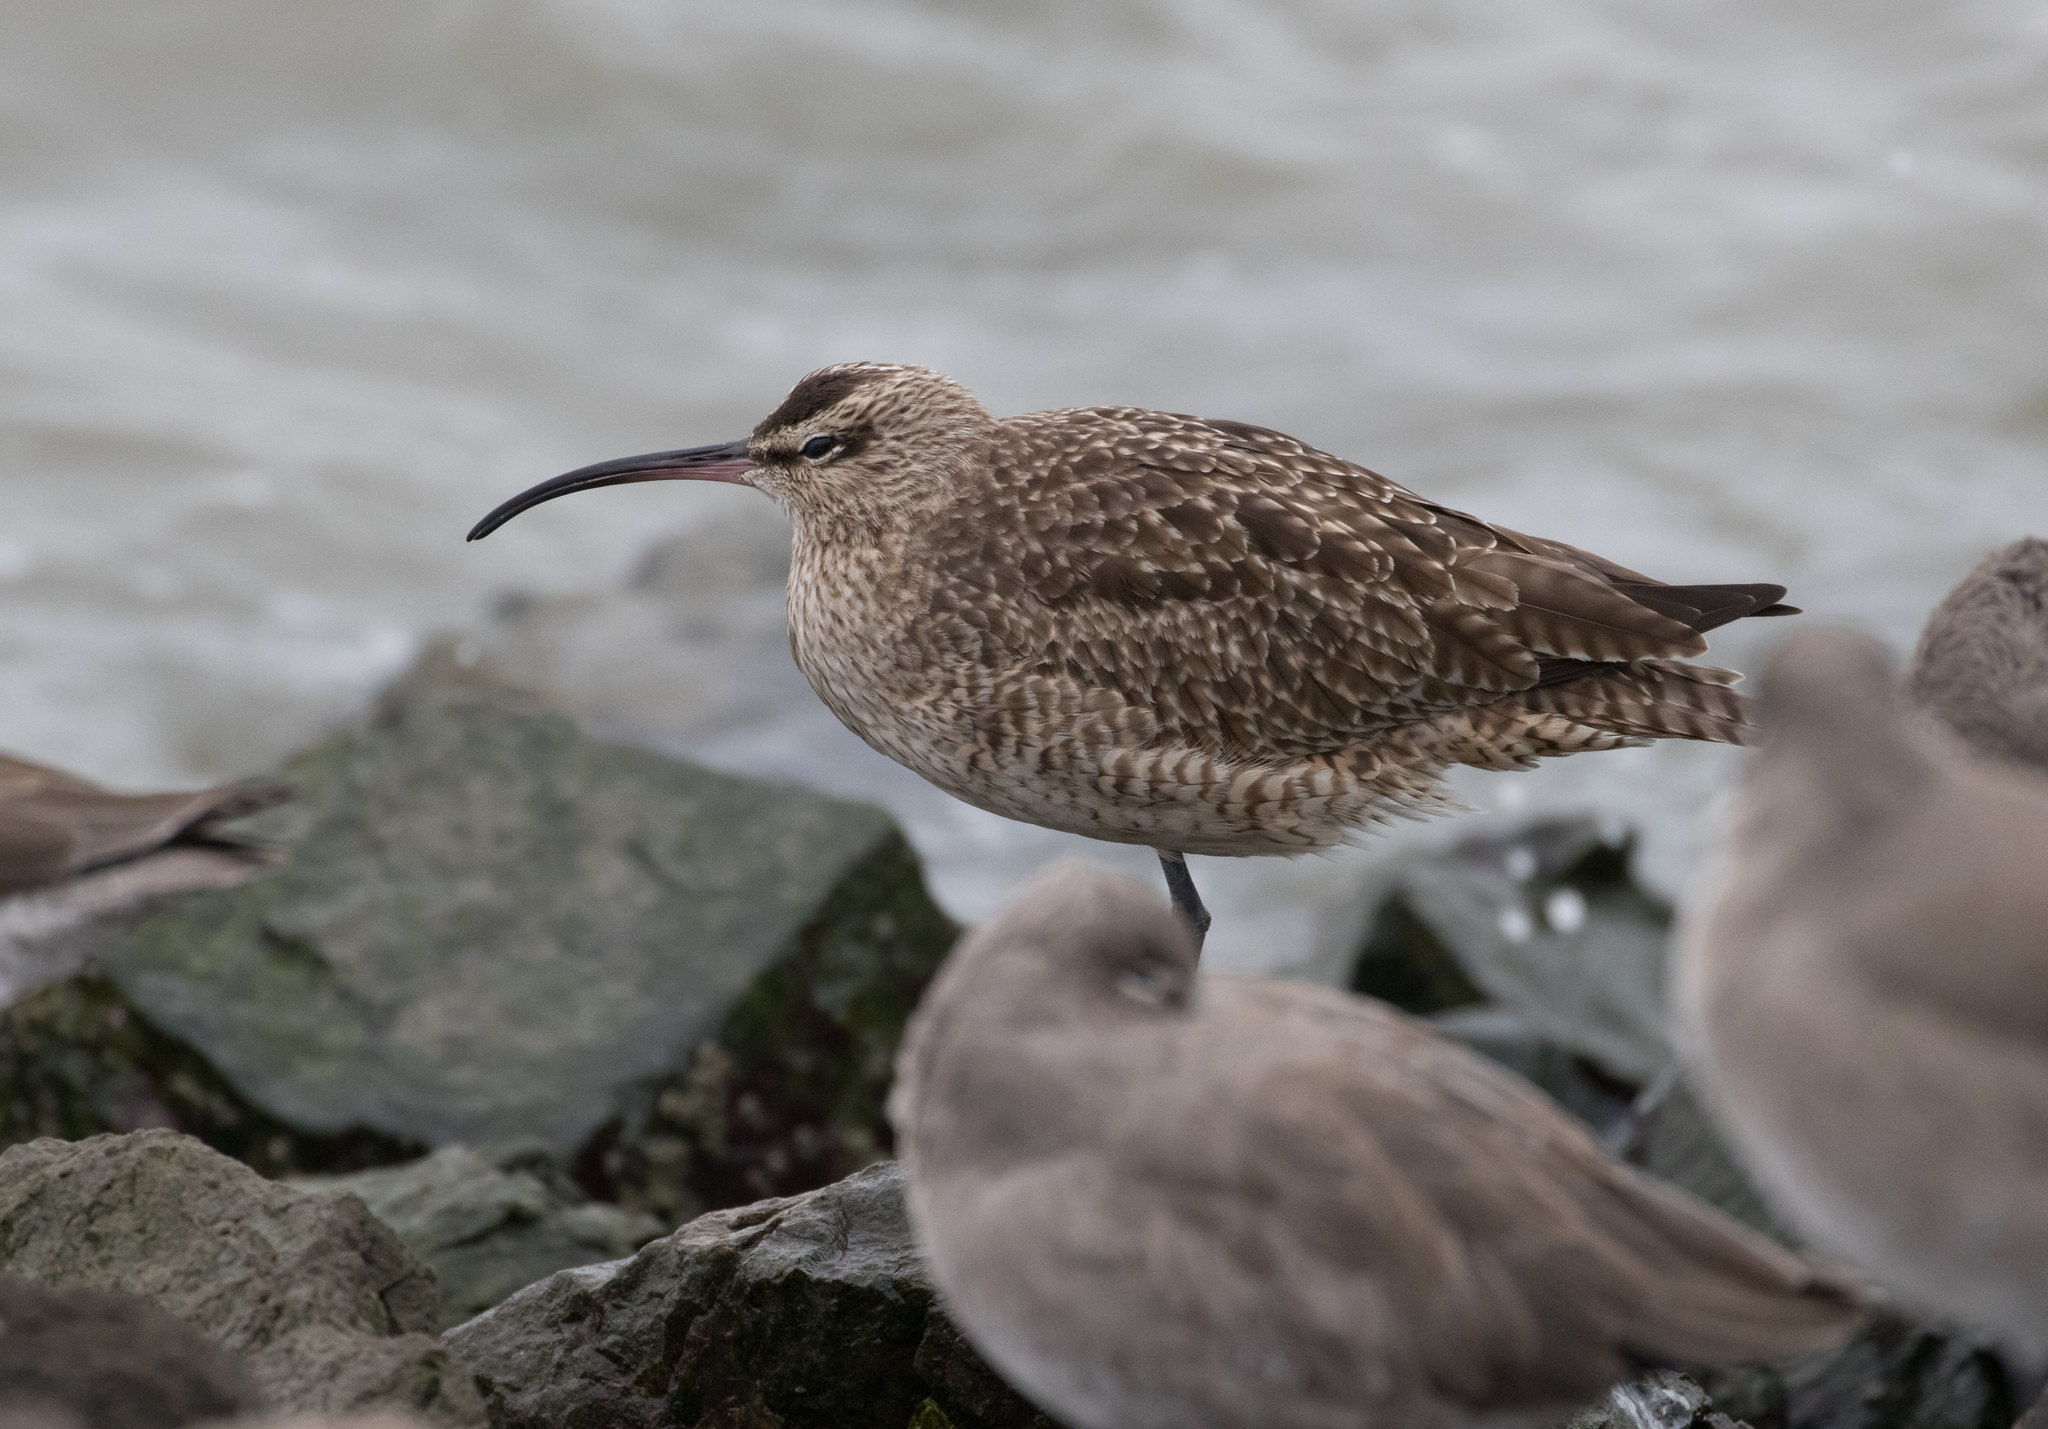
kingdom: Animalia
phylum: Chordata
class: Aves
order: Charadriiformes
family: Scolopacidae
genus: Numenius
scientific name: Numenius phaeopus
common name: Whimbrel
